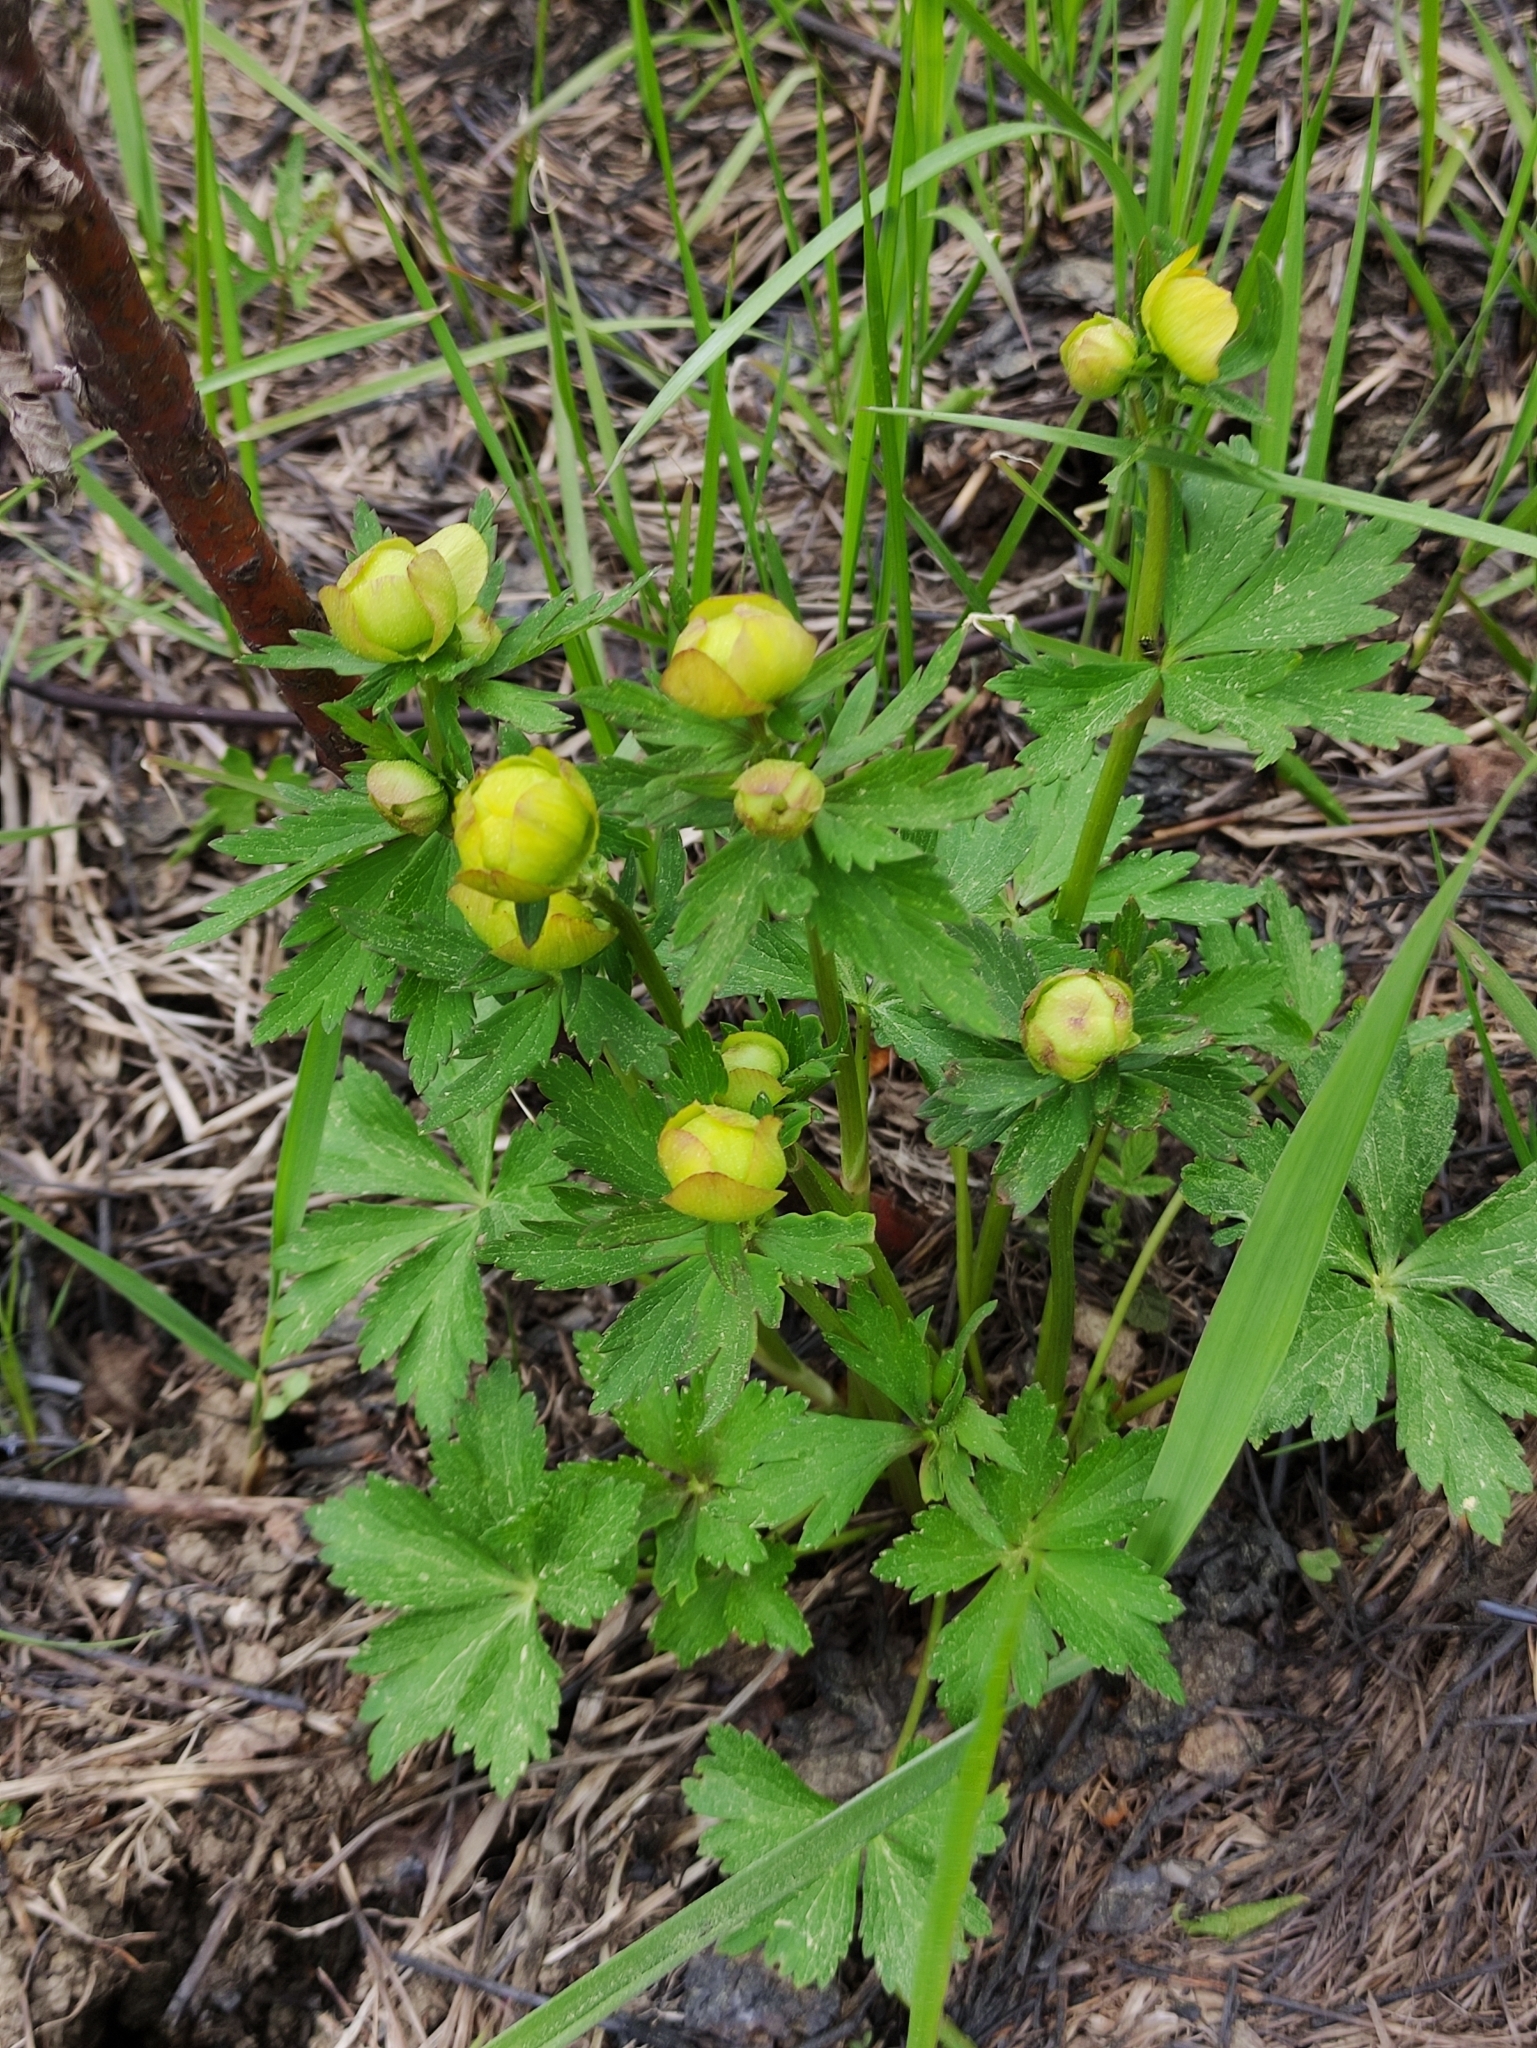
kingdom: Plantae
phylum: Tracheophyta
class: Magnoliopsida
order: Ranunculales
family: Ranunculaceae
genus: Trollius
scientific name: Trollius europaeus
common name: European globeflower
